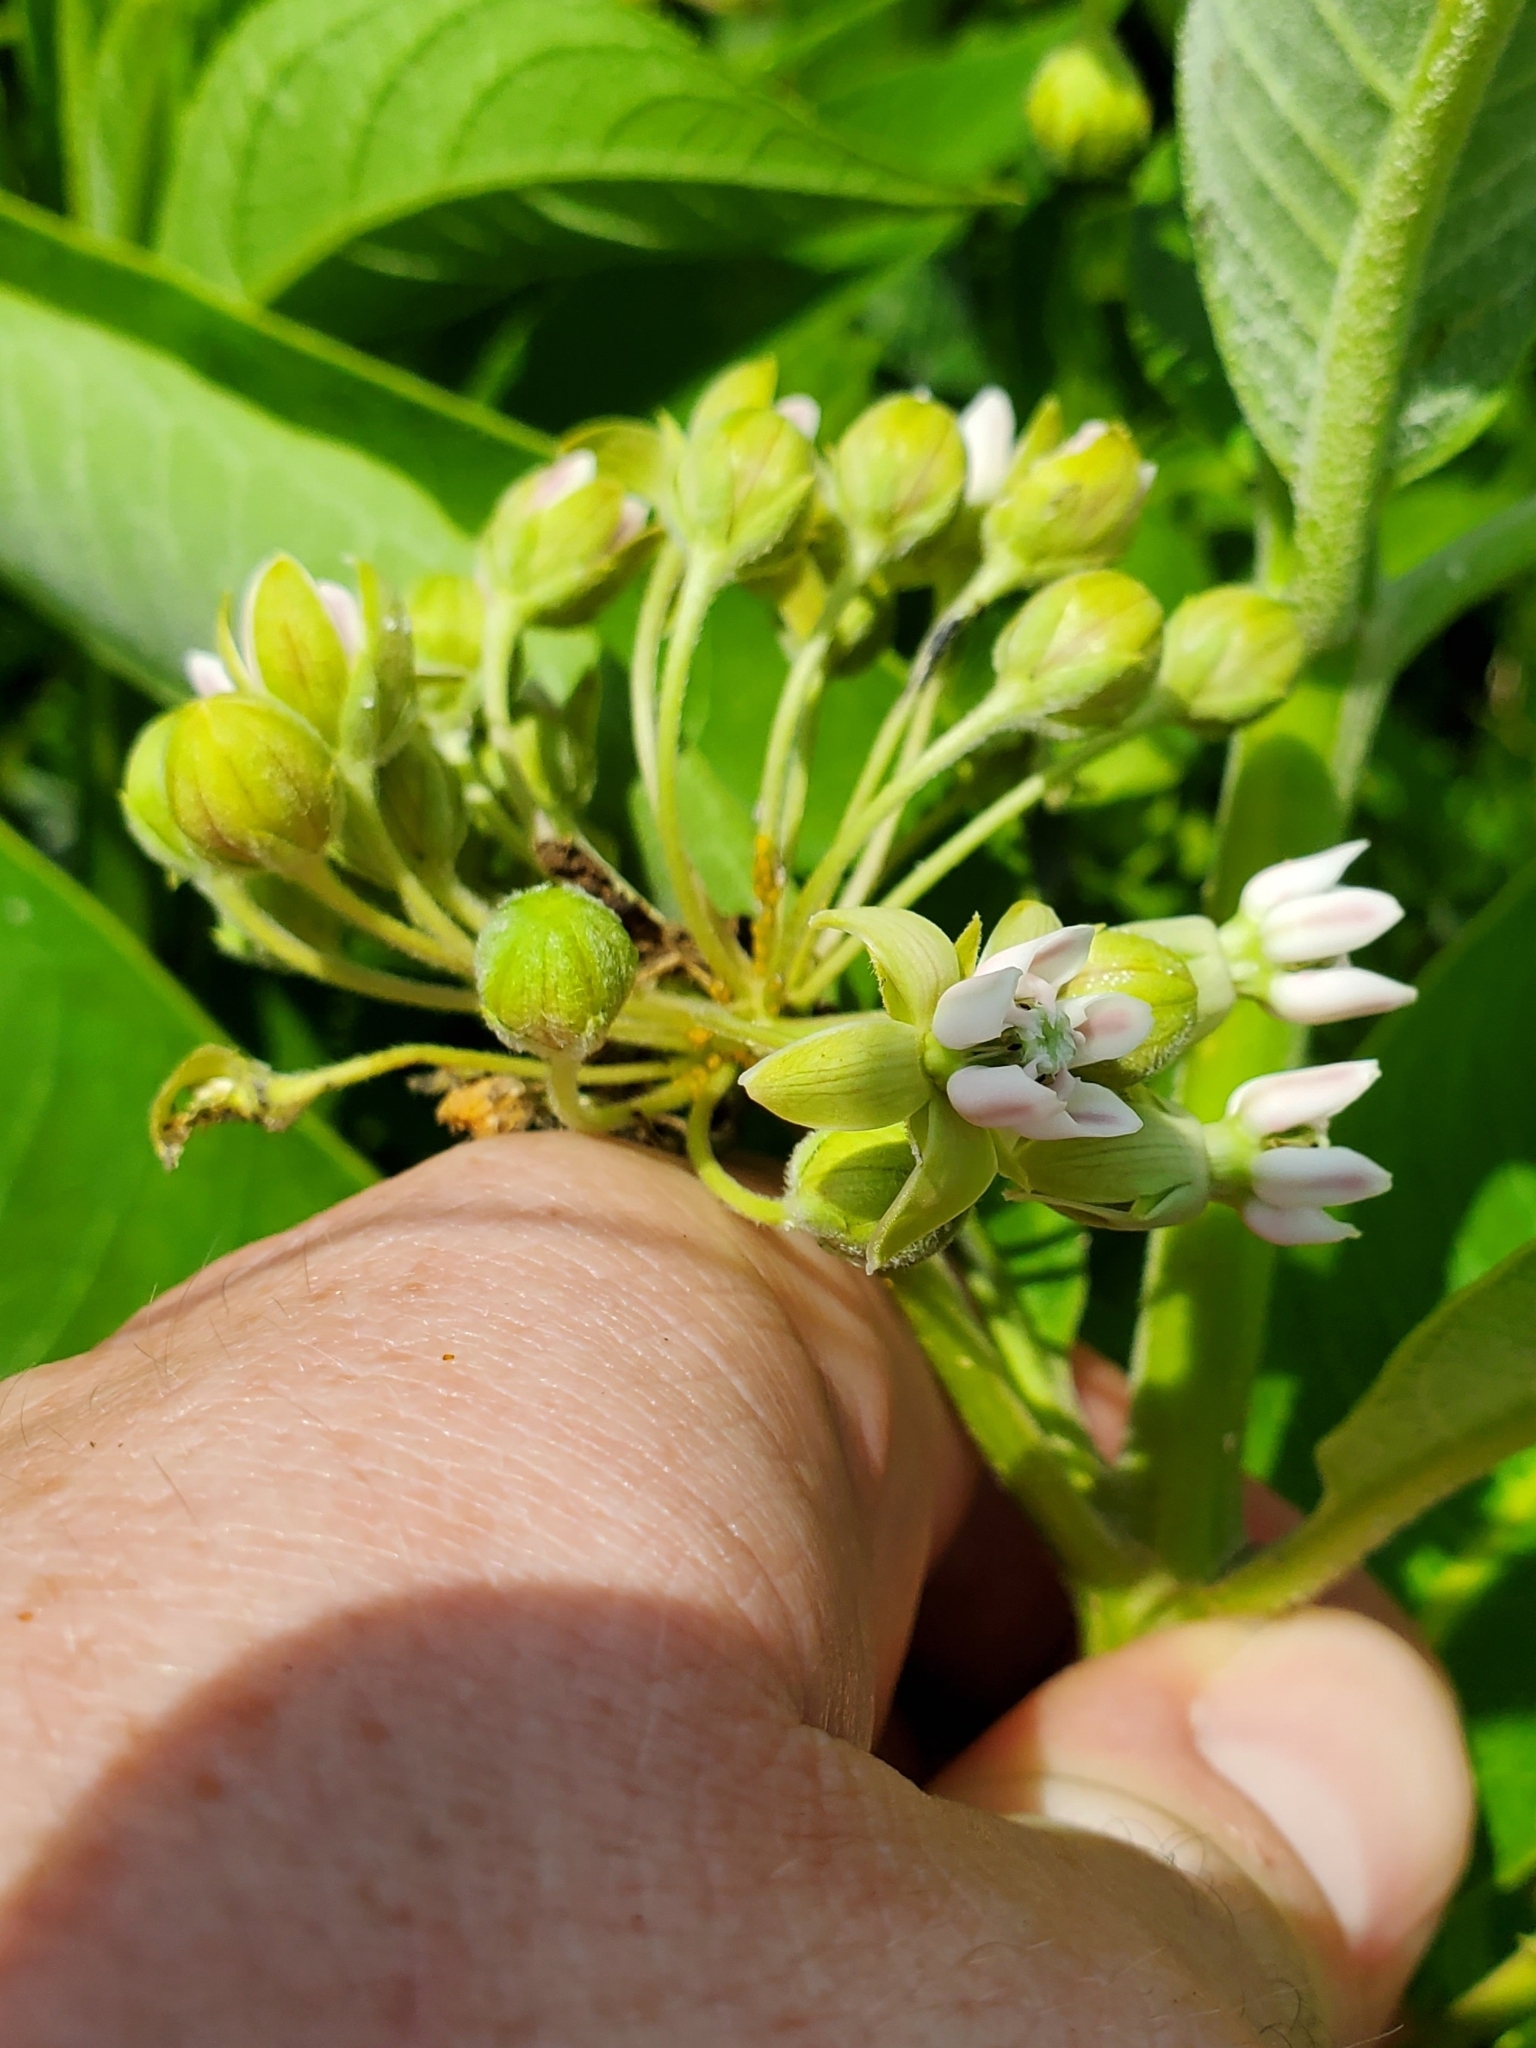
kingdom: Plantae
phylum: Tracheophyta
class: Magnoliopsida
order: Gentianales
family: Apocynaceae
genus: Asclepias
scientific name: Asclepias syriaca
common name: Common milkweed
